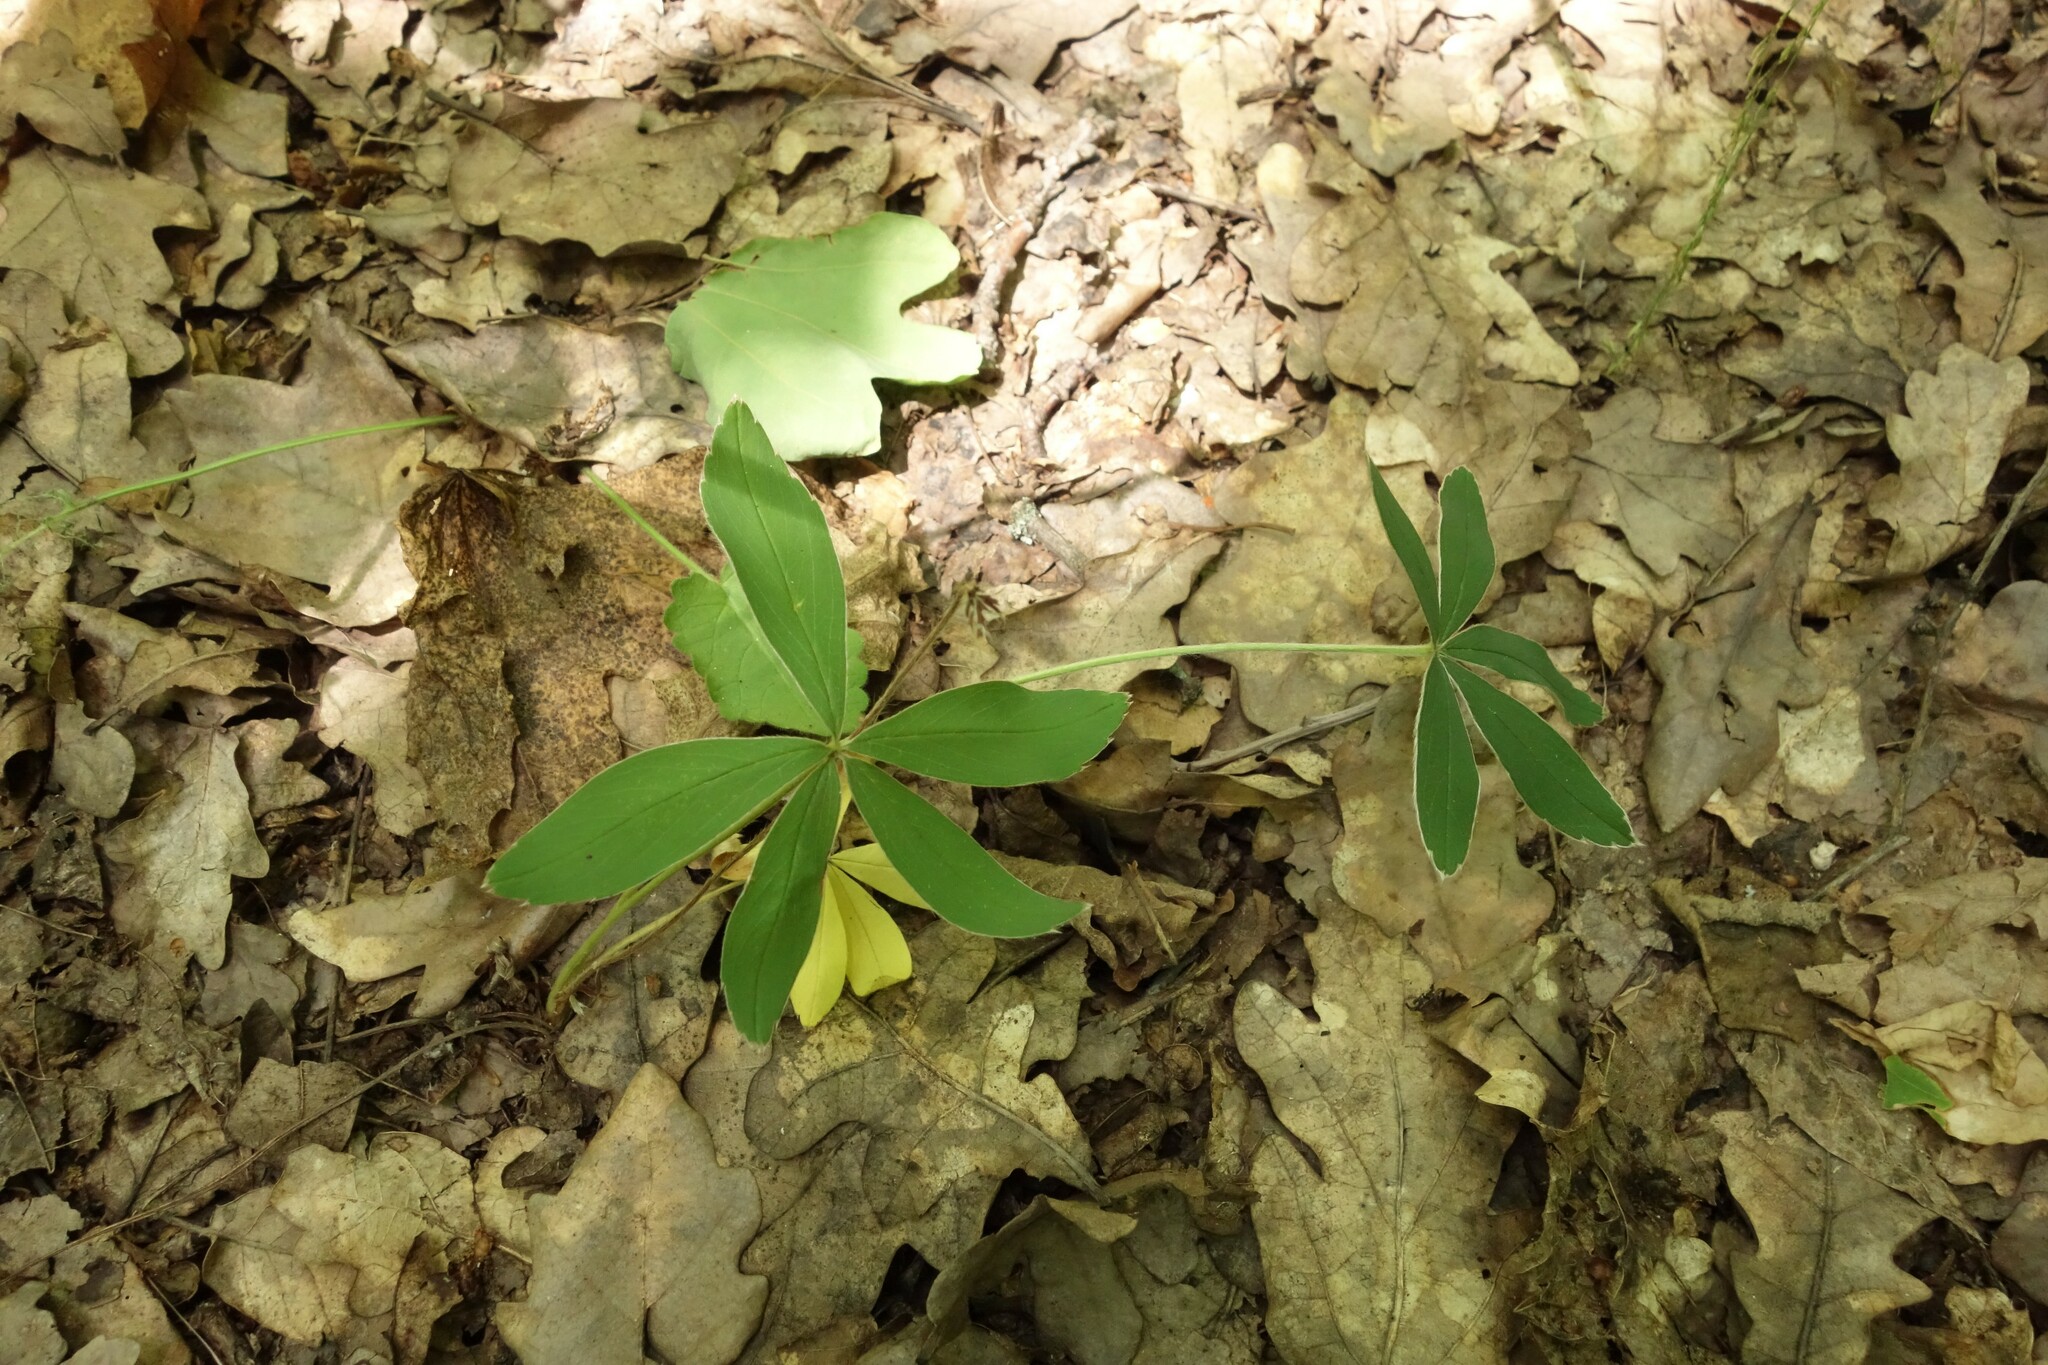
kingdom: Plantae
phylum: Tracheophyta
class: Magnoliopsida
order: Rosales
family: Rosaceae
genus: Potentilla
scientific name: Potentilla alba
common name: White cinquefoil
